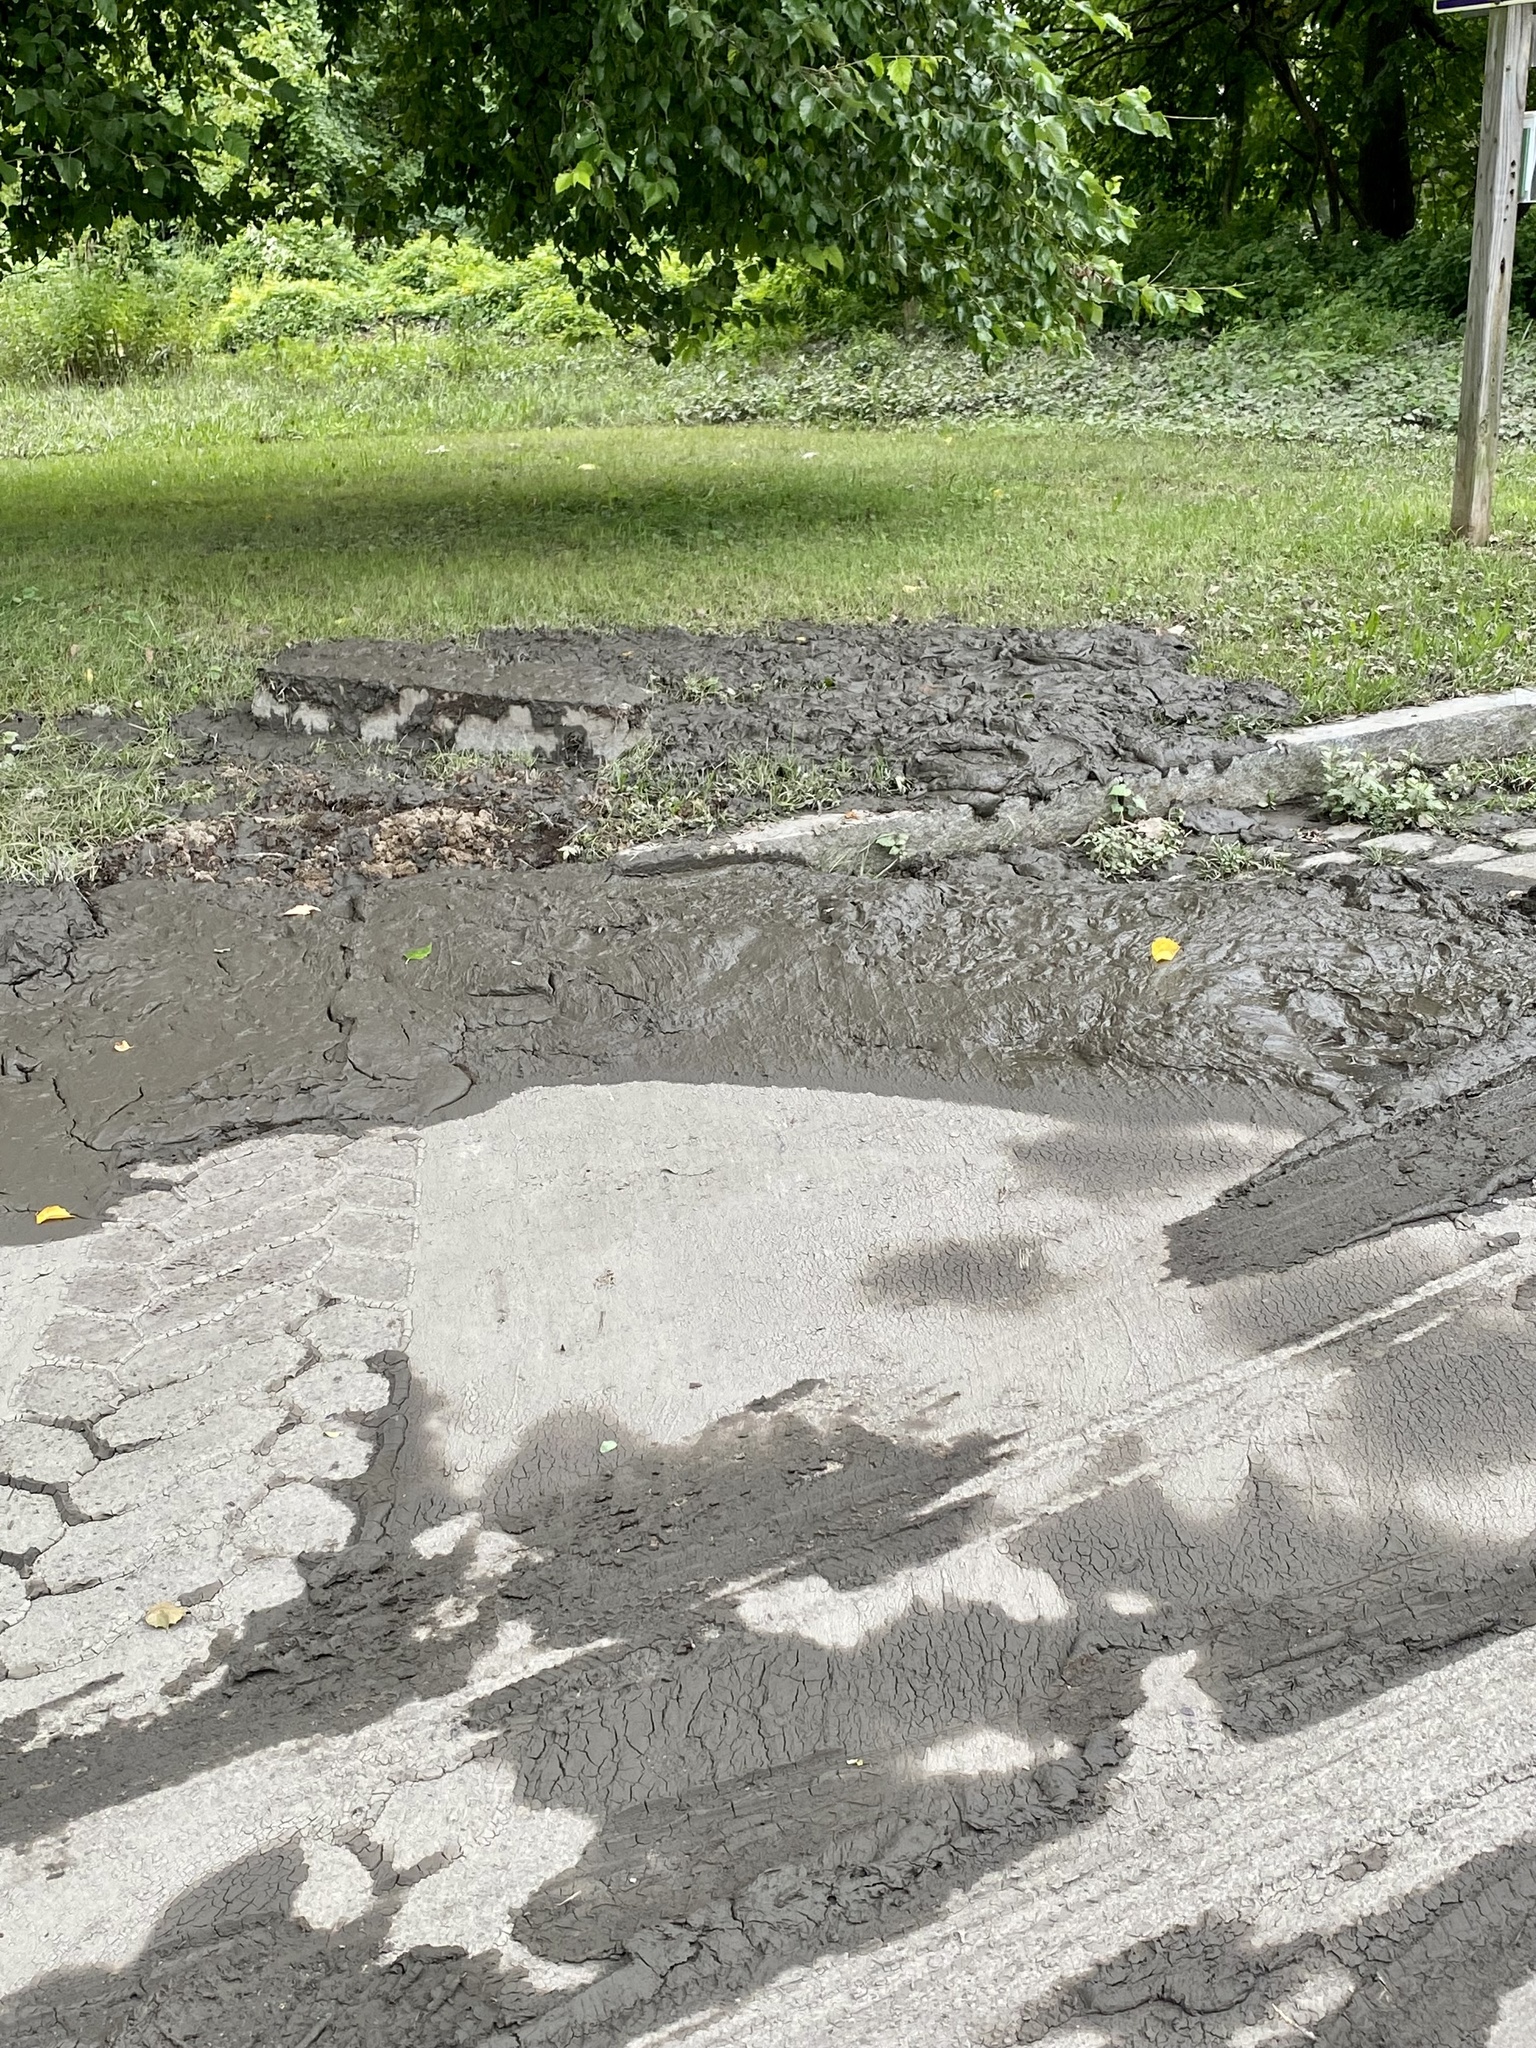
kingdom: Plantae
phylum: Tracheophyta
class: Magnoliopsida
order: Caryophyllales
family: Polygonaceae
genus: Rumex
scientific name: Rumex obtusifolius
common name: Bitter dock
